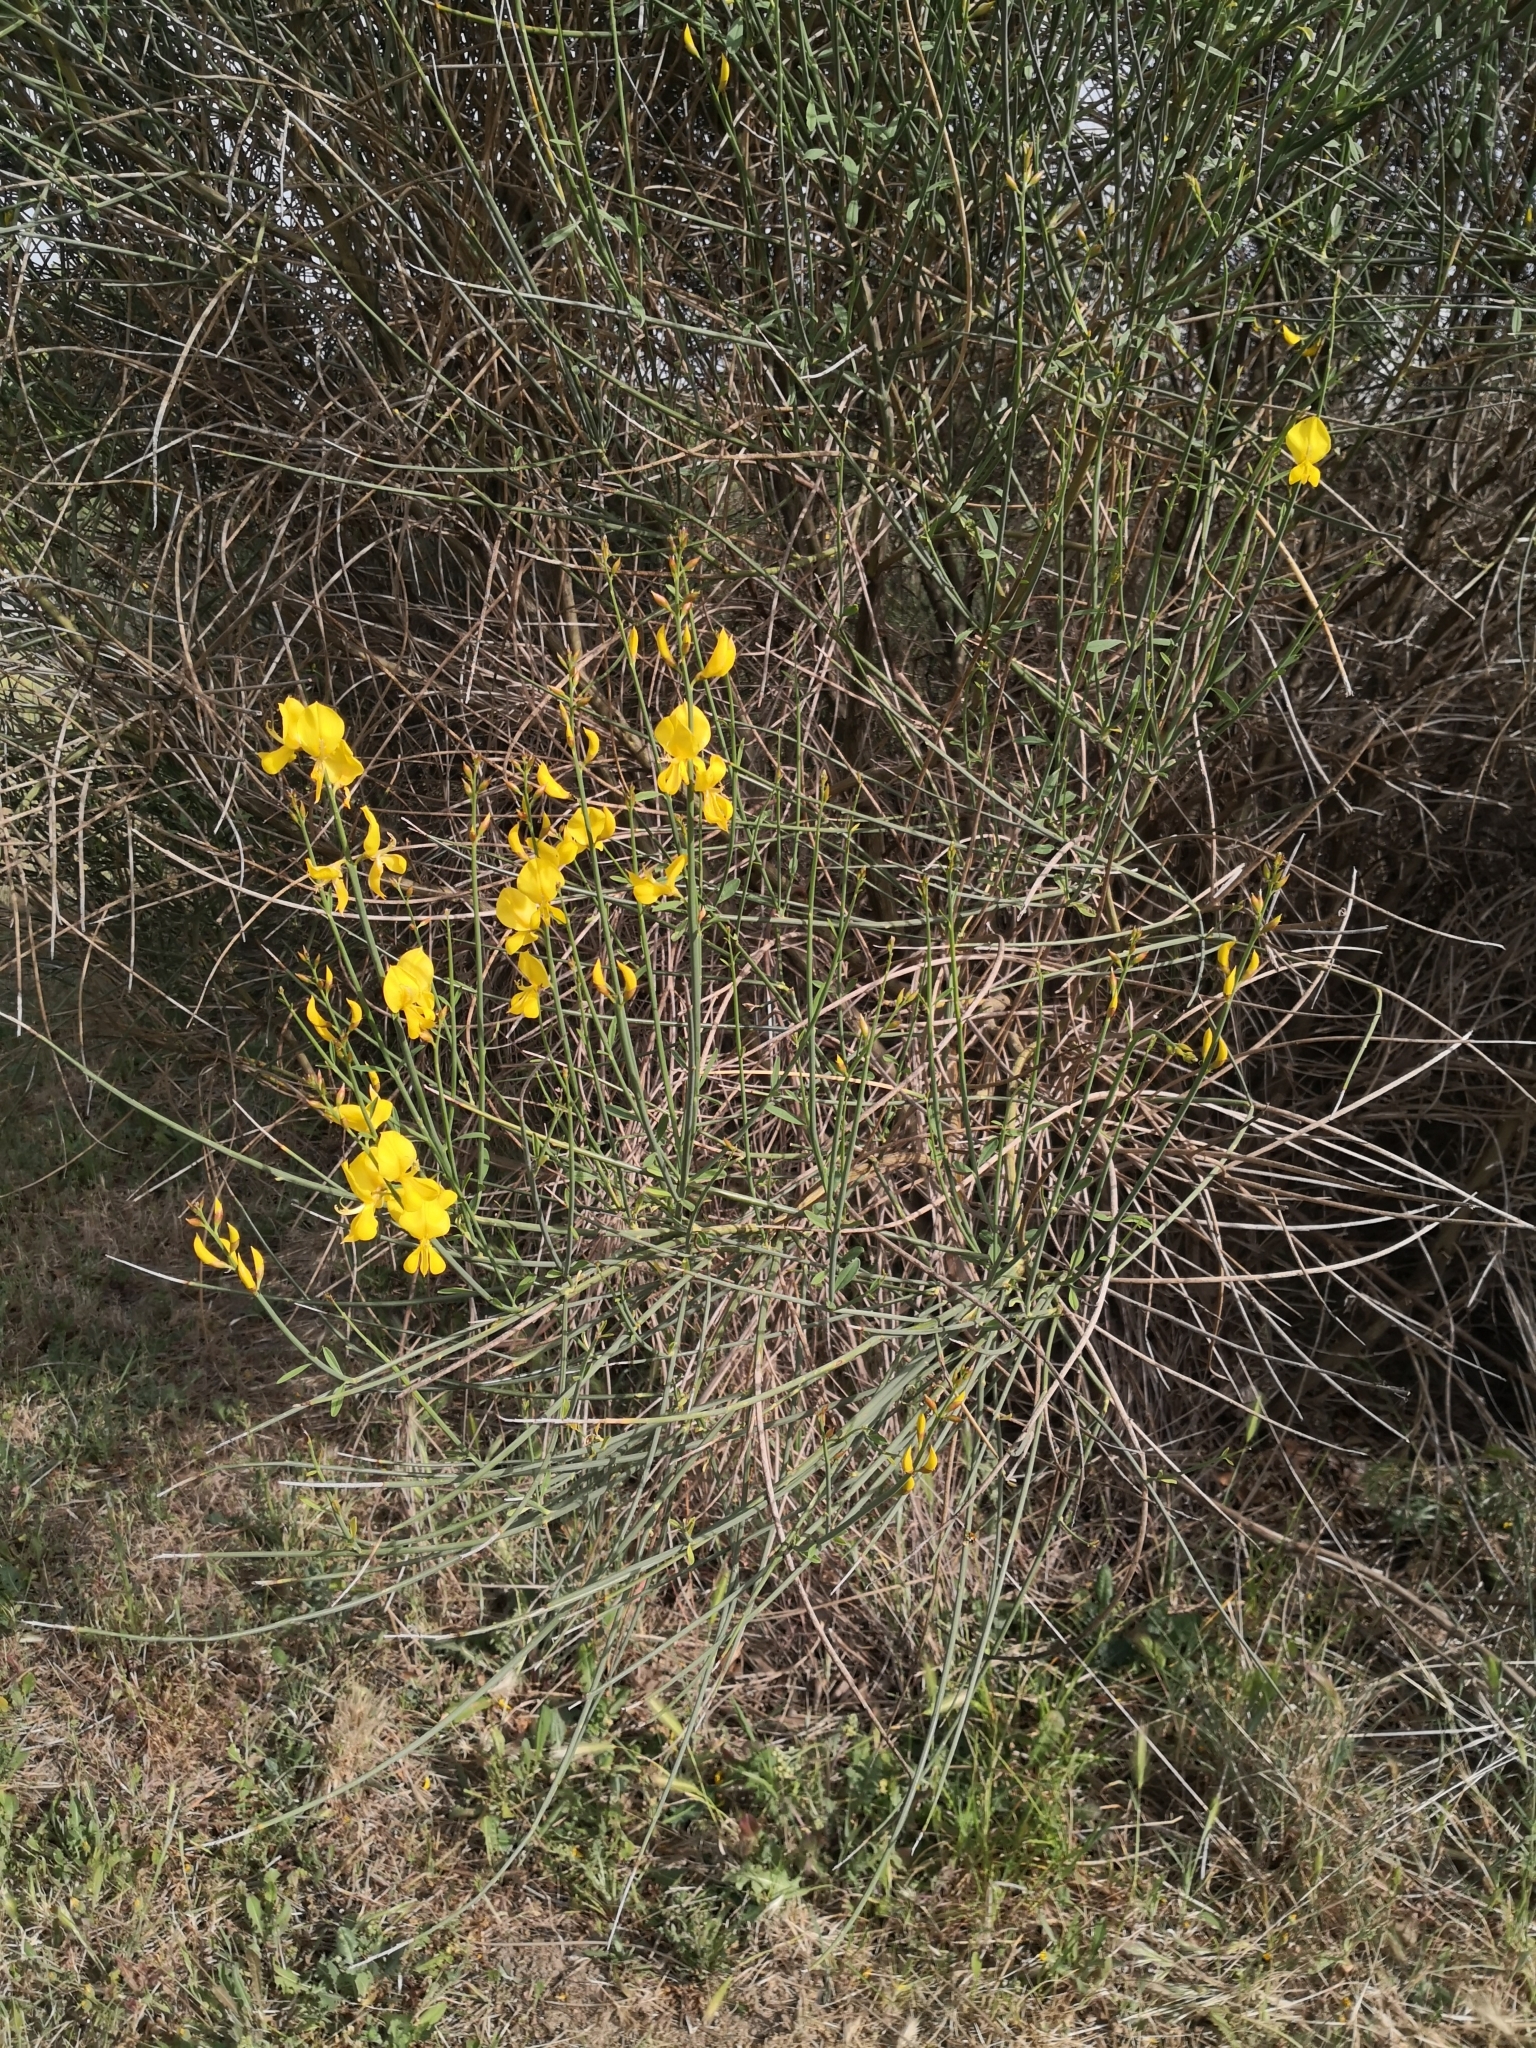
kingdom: Plantae
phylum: Tracheophyta
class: Magnoliopsida
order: Fabales
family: Fabaceae
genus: Spartium
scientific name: Spartium junceum
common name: Spanish broom
